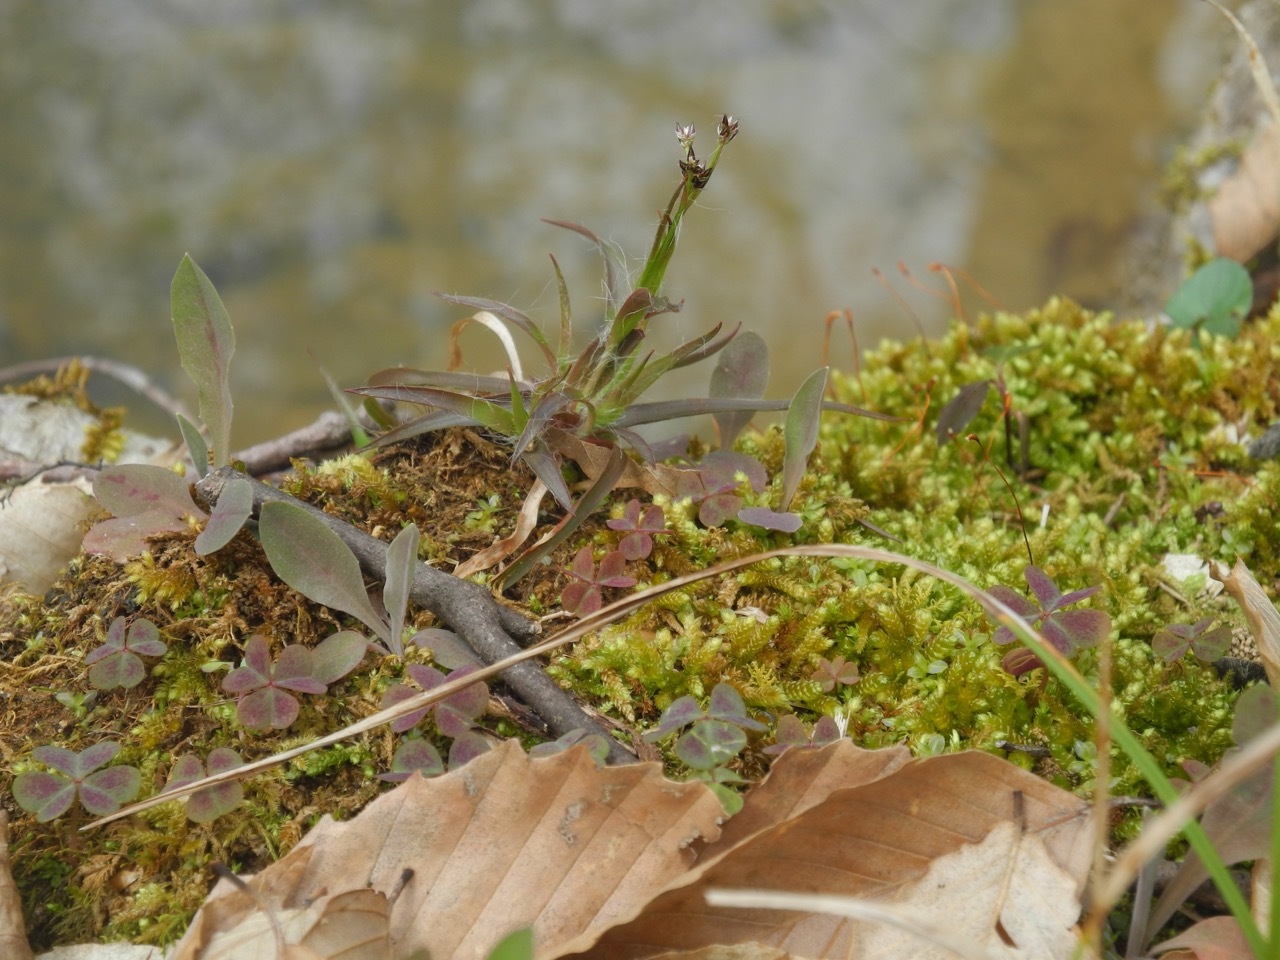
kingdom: Plantae
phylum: Tracheophyta
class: Magnoliopsida
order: Oxalidales
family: Oxalidaceae
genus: Oxalis
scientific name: Oxalis violacea
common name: Violet wood-sorrel
